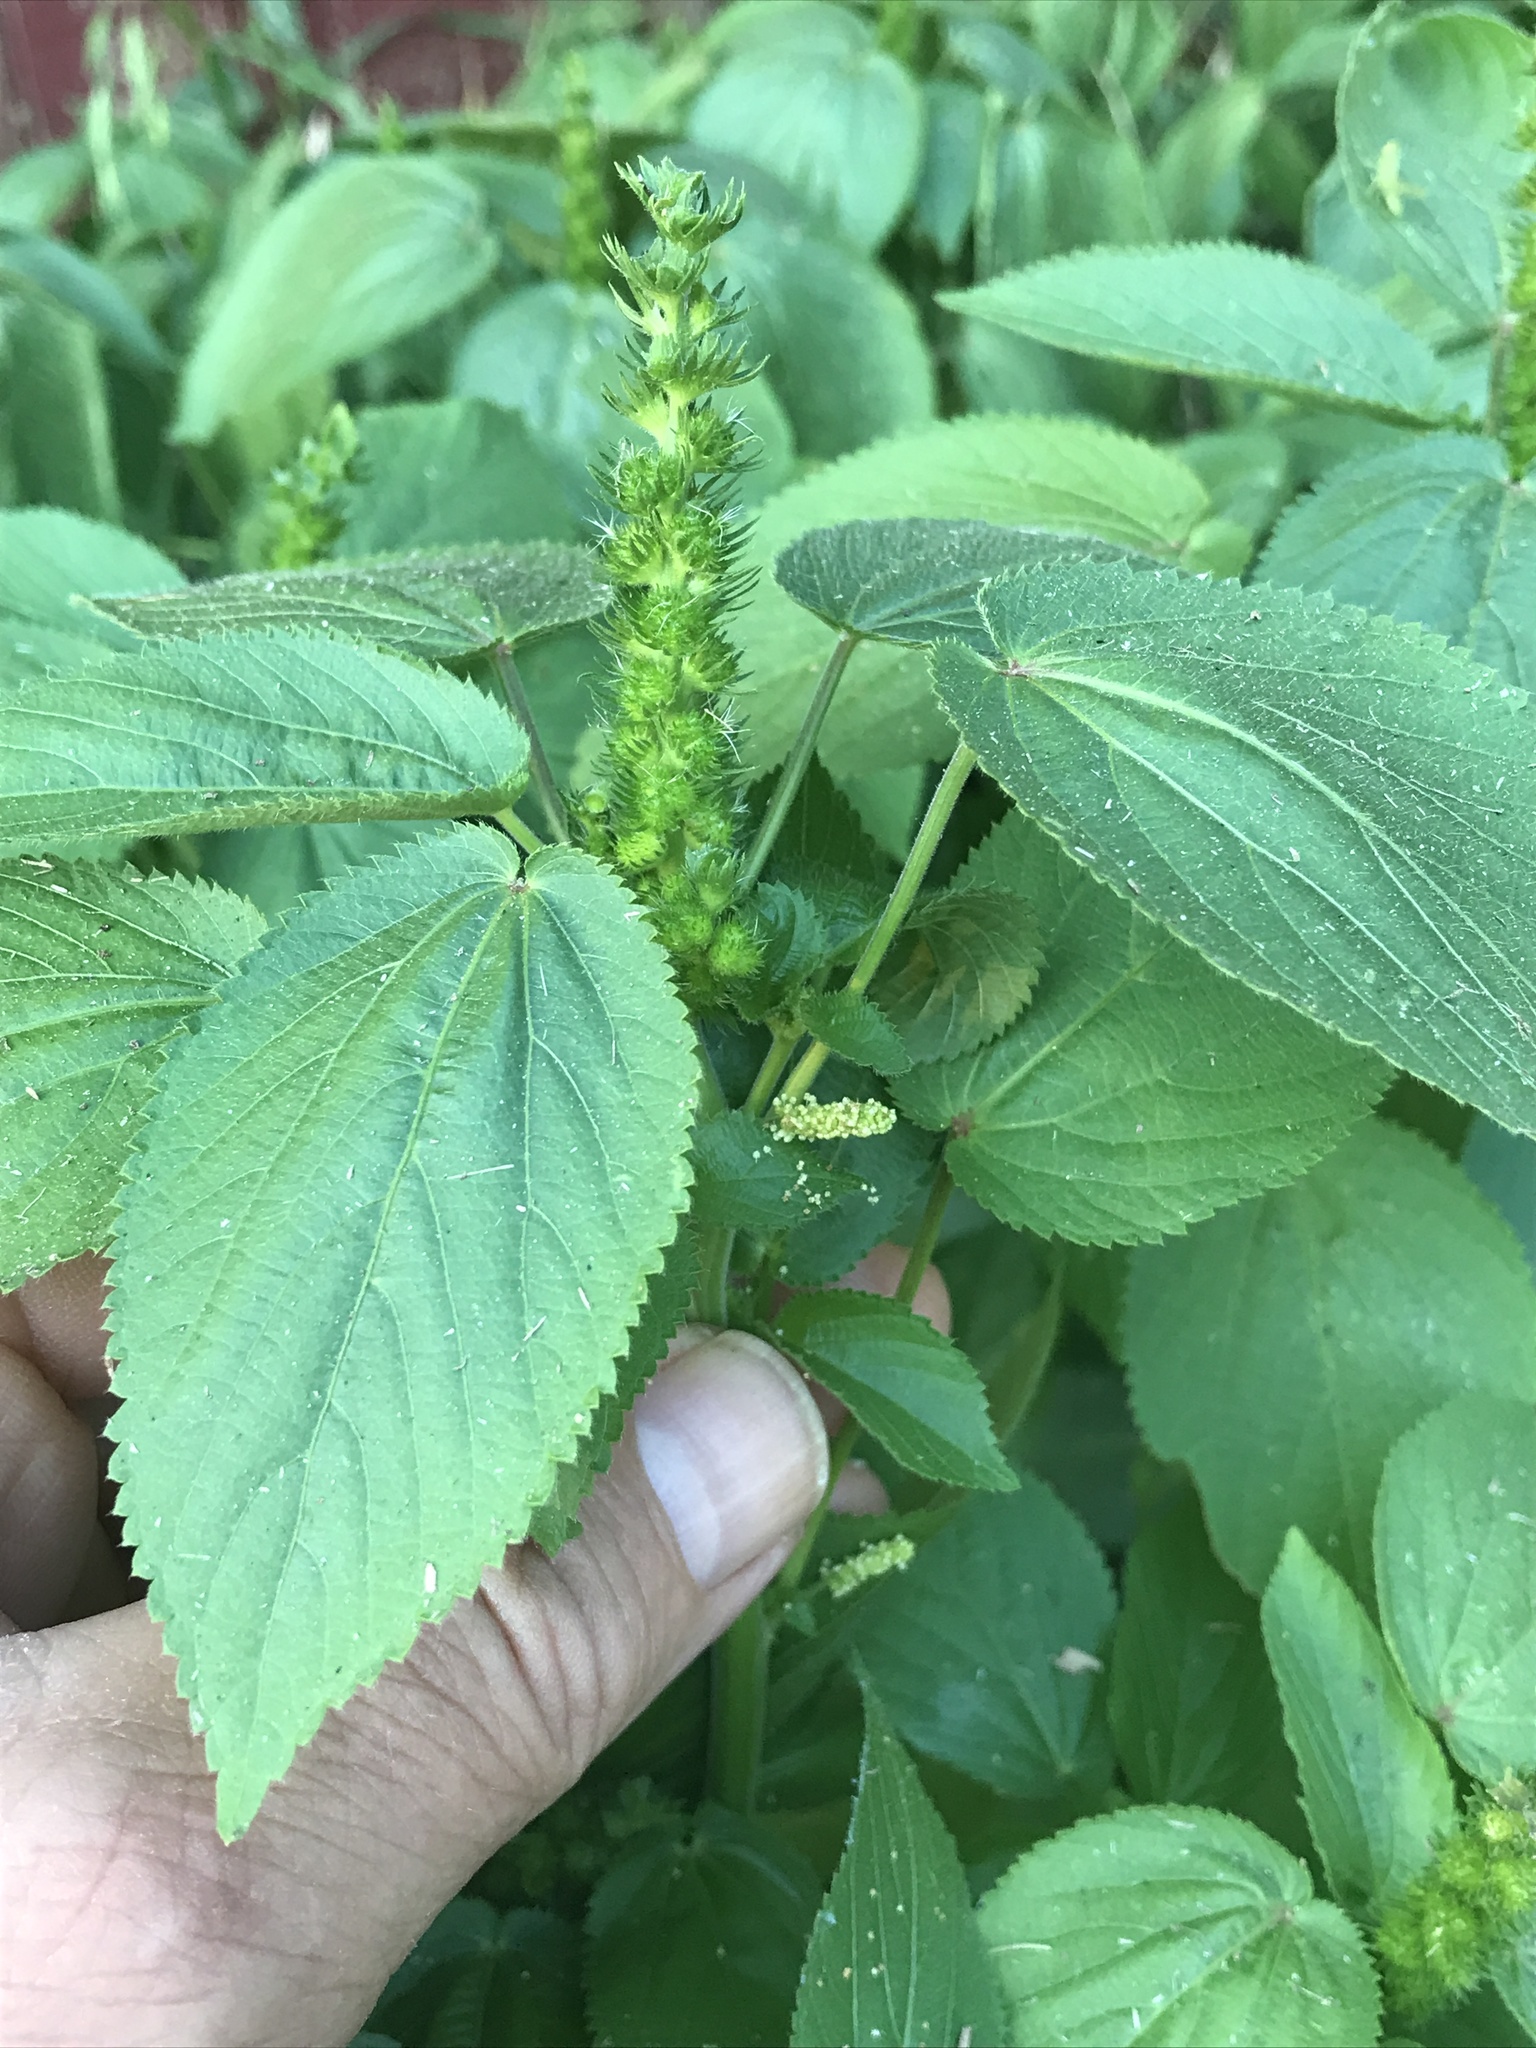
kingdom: Plantae
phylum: Tracheophyta
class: Magnoliopsida
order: Malpighiales
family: Euphorbiaceae
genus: Acalypha
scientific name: Acalypha ostryifolia
